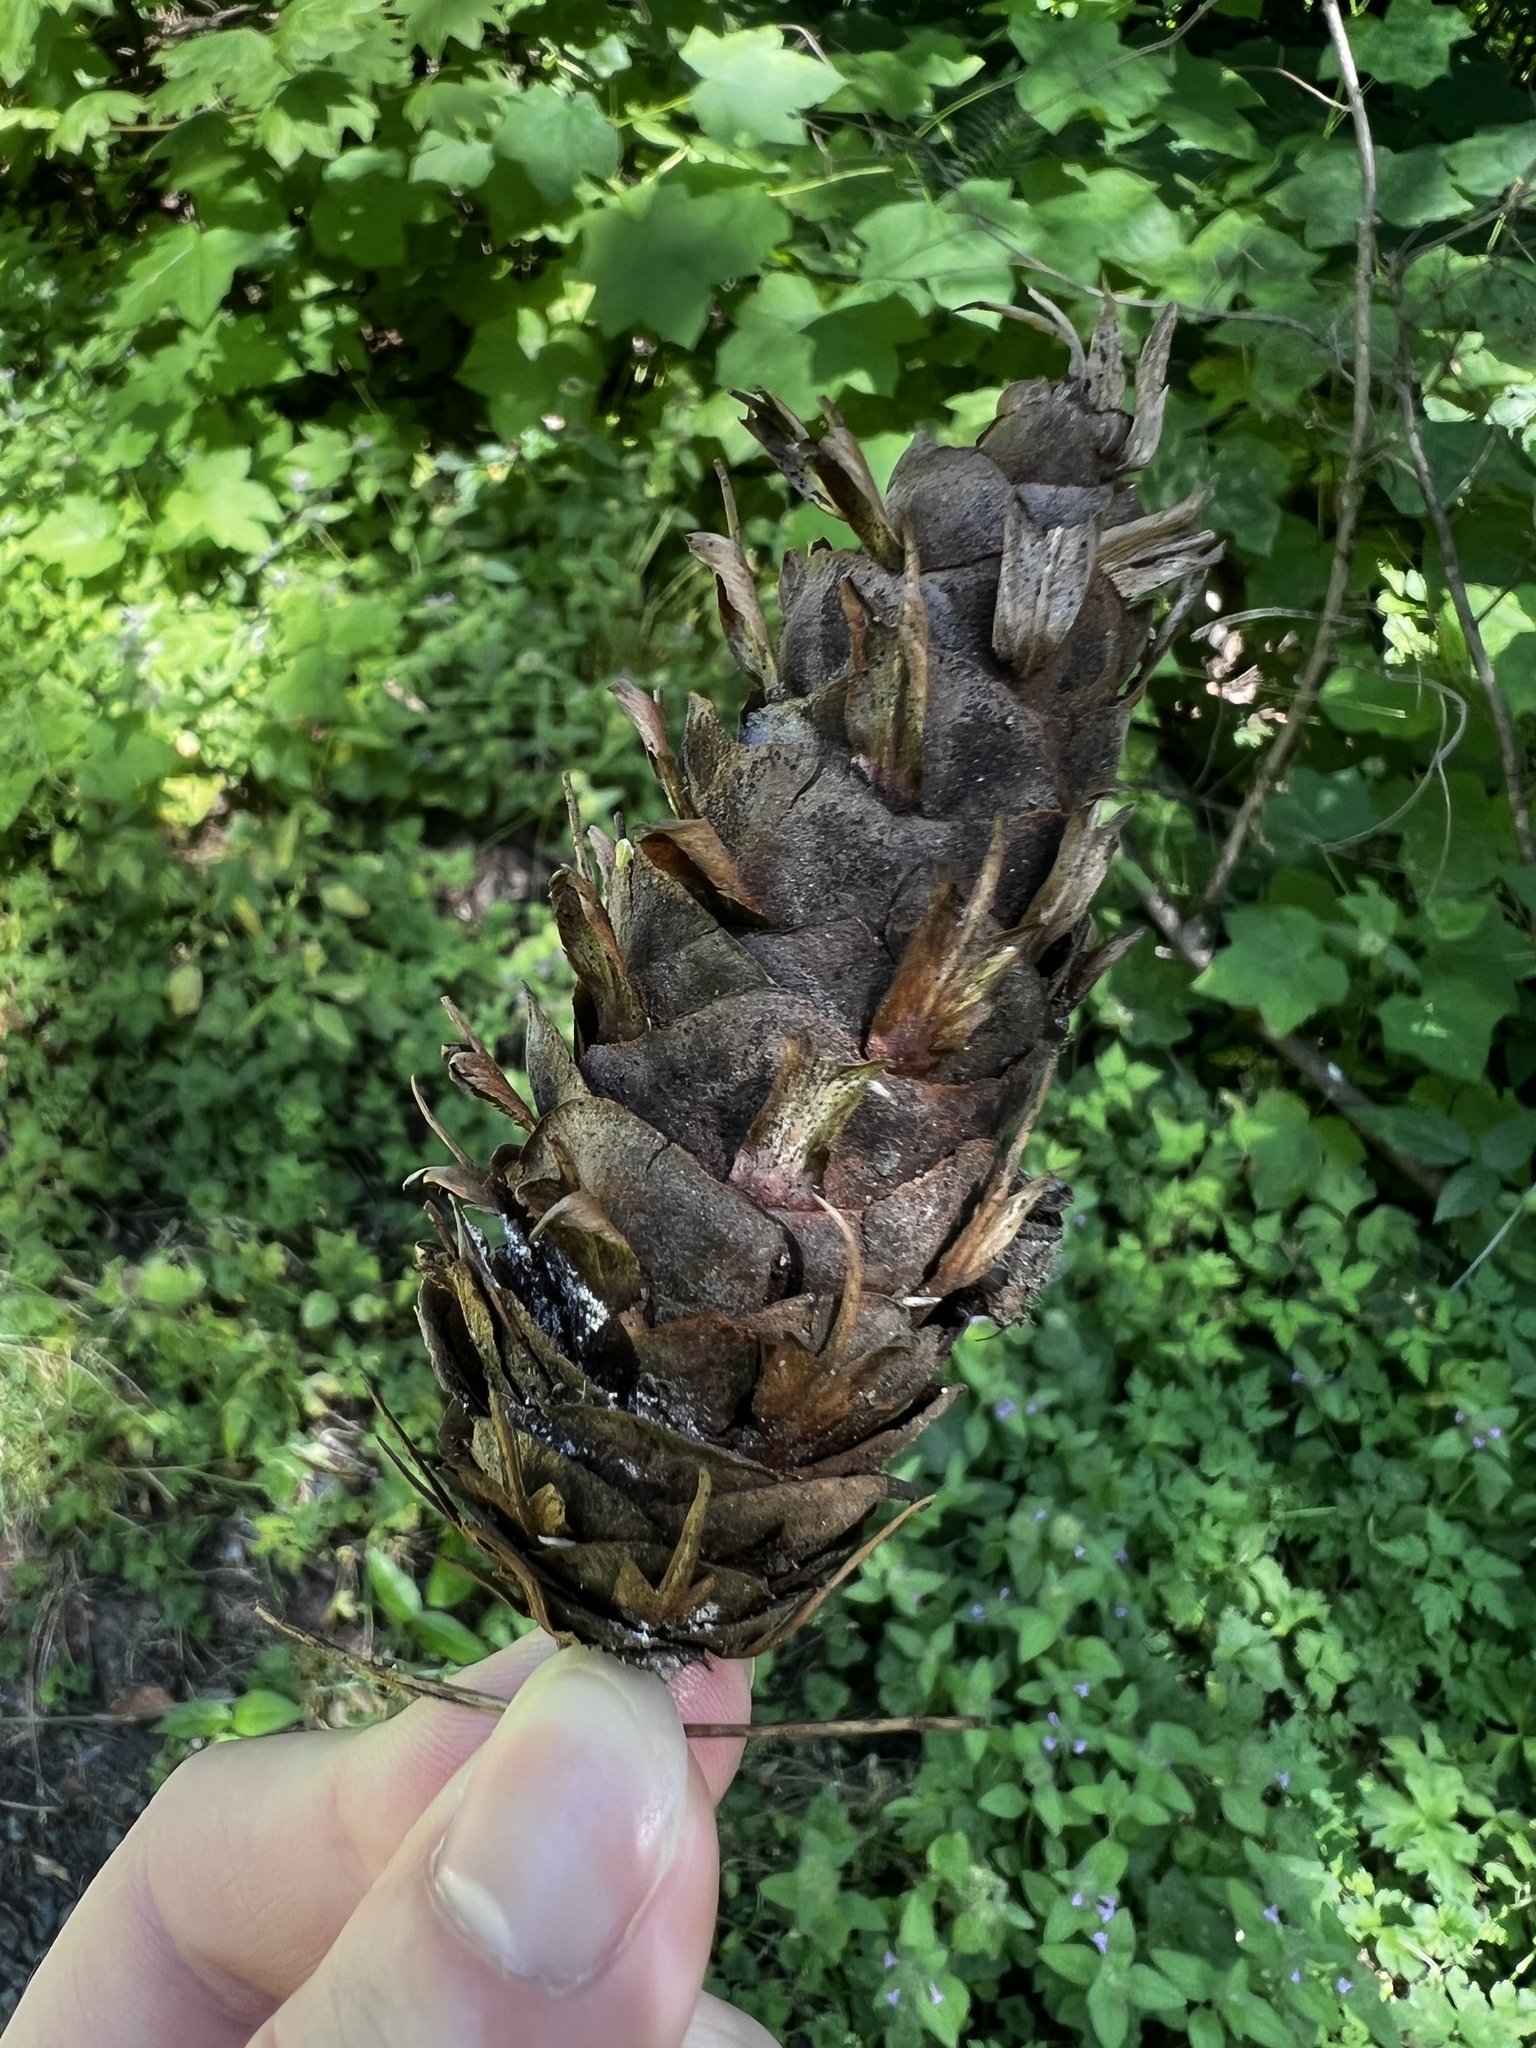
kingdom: Plantae
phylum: Tracheophyta
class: Pinopsida
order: Pinales
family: Pinaceae
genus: Pseudotsuga
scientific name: Pseudotsuga menziesii
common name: Douglas fir
